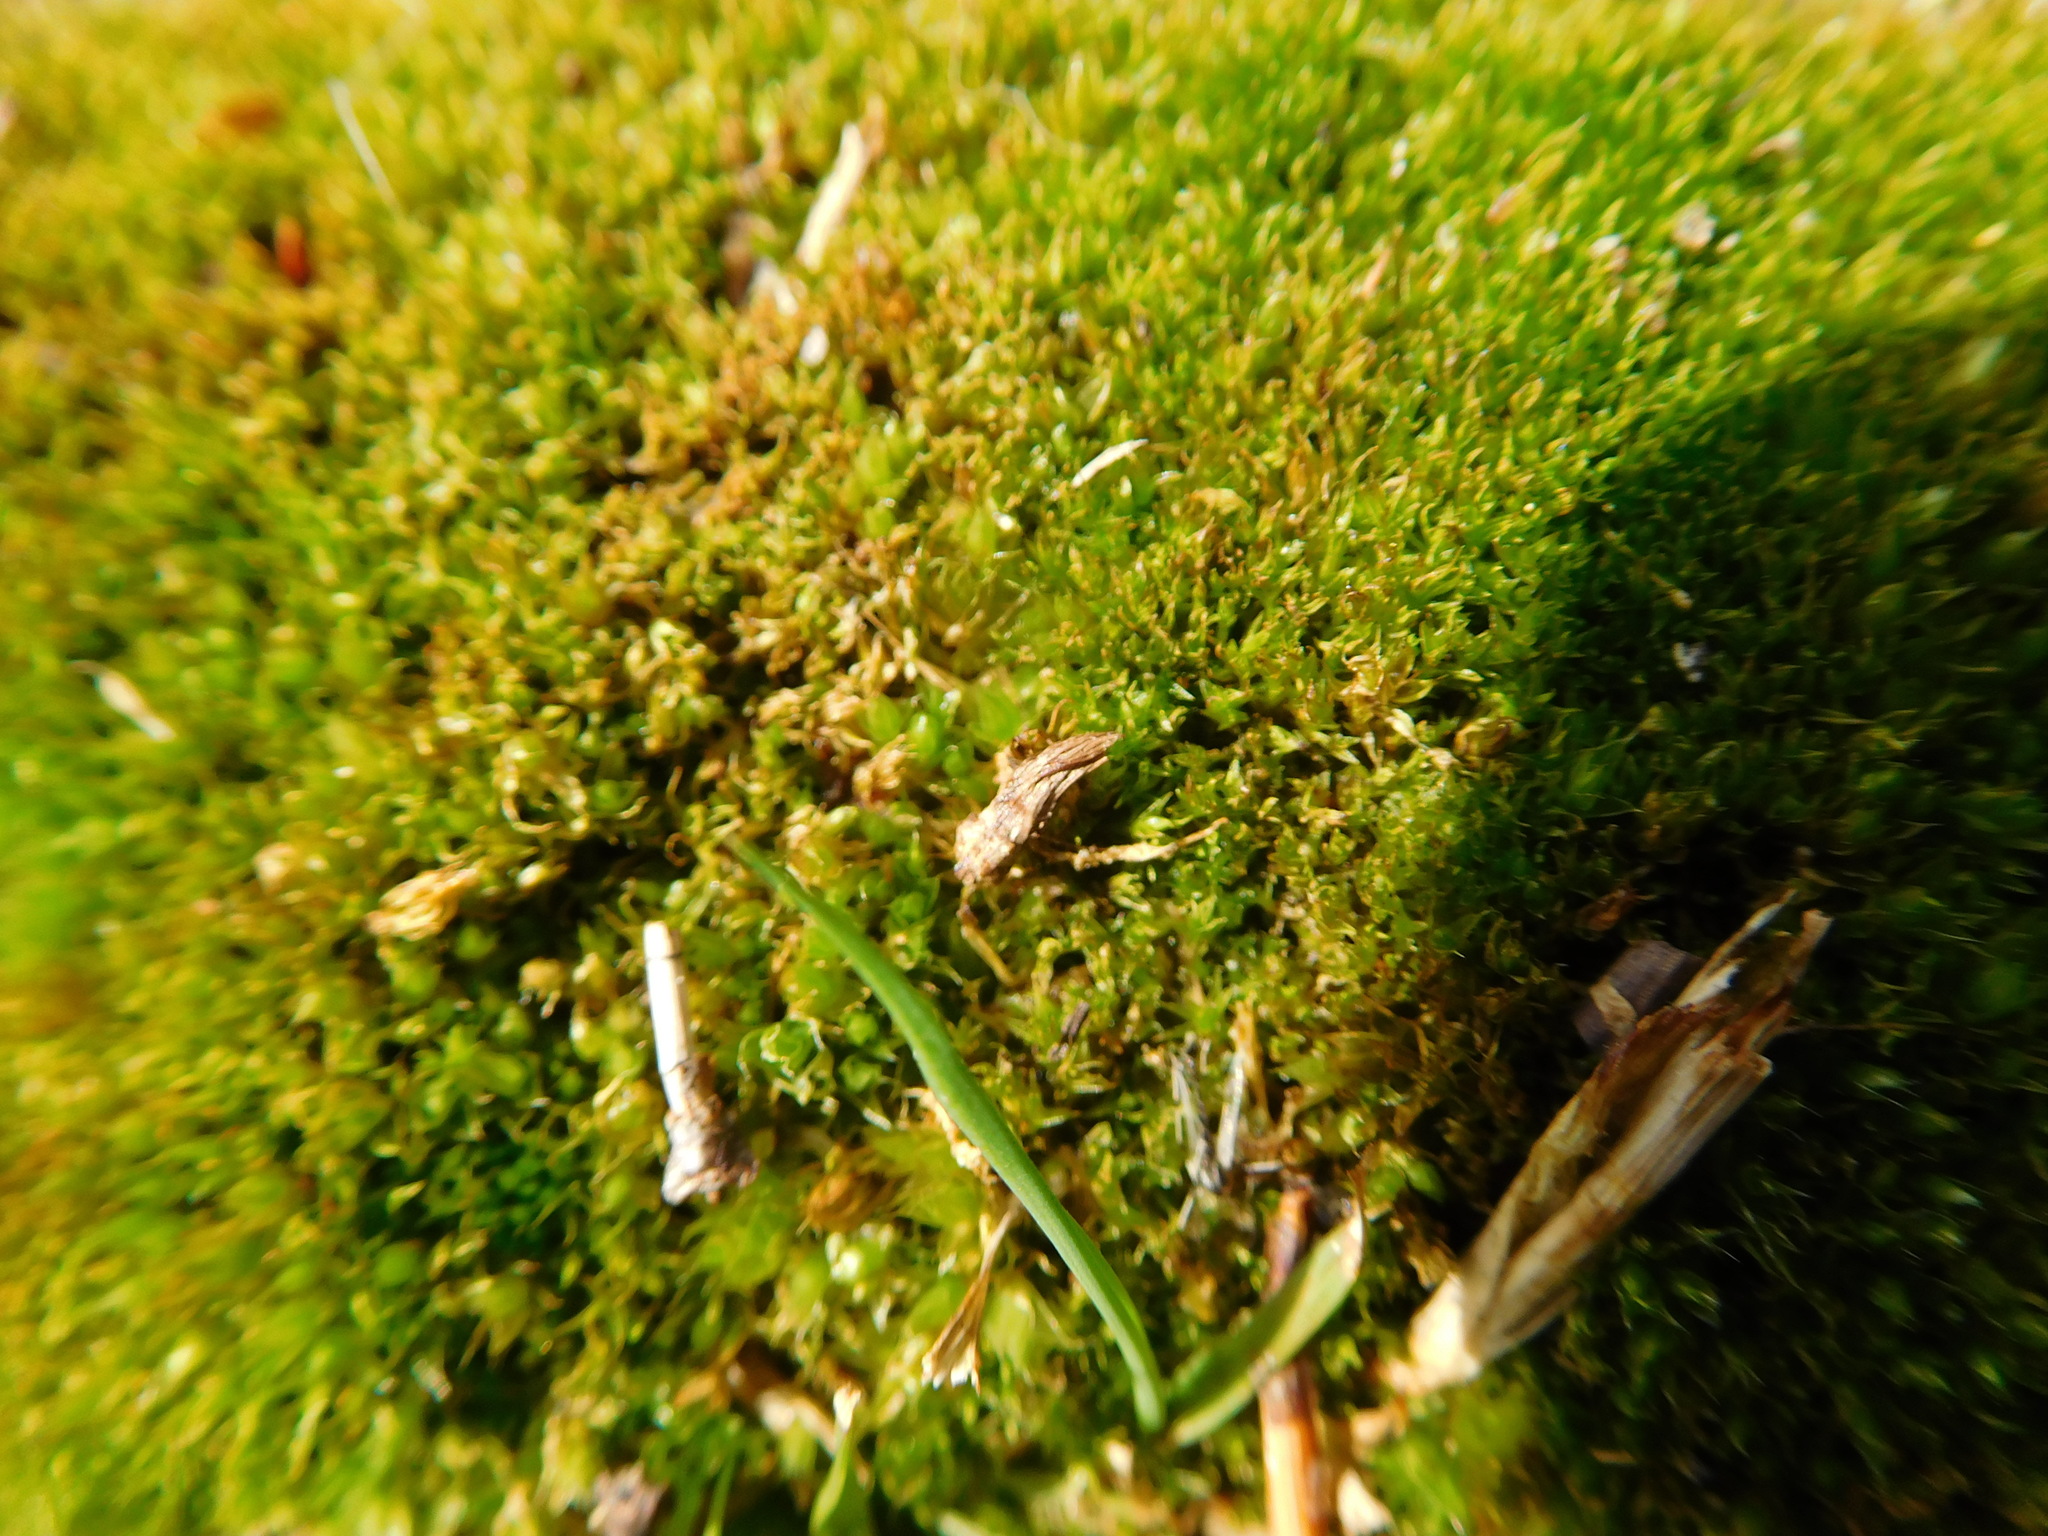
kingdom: Plantae
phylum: Bryophyta
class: Bryopsida
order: Bryales
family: Bryaceae
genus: Rosulabryum
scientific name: Rosulabryum capillare
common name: Capillary thread-moss
